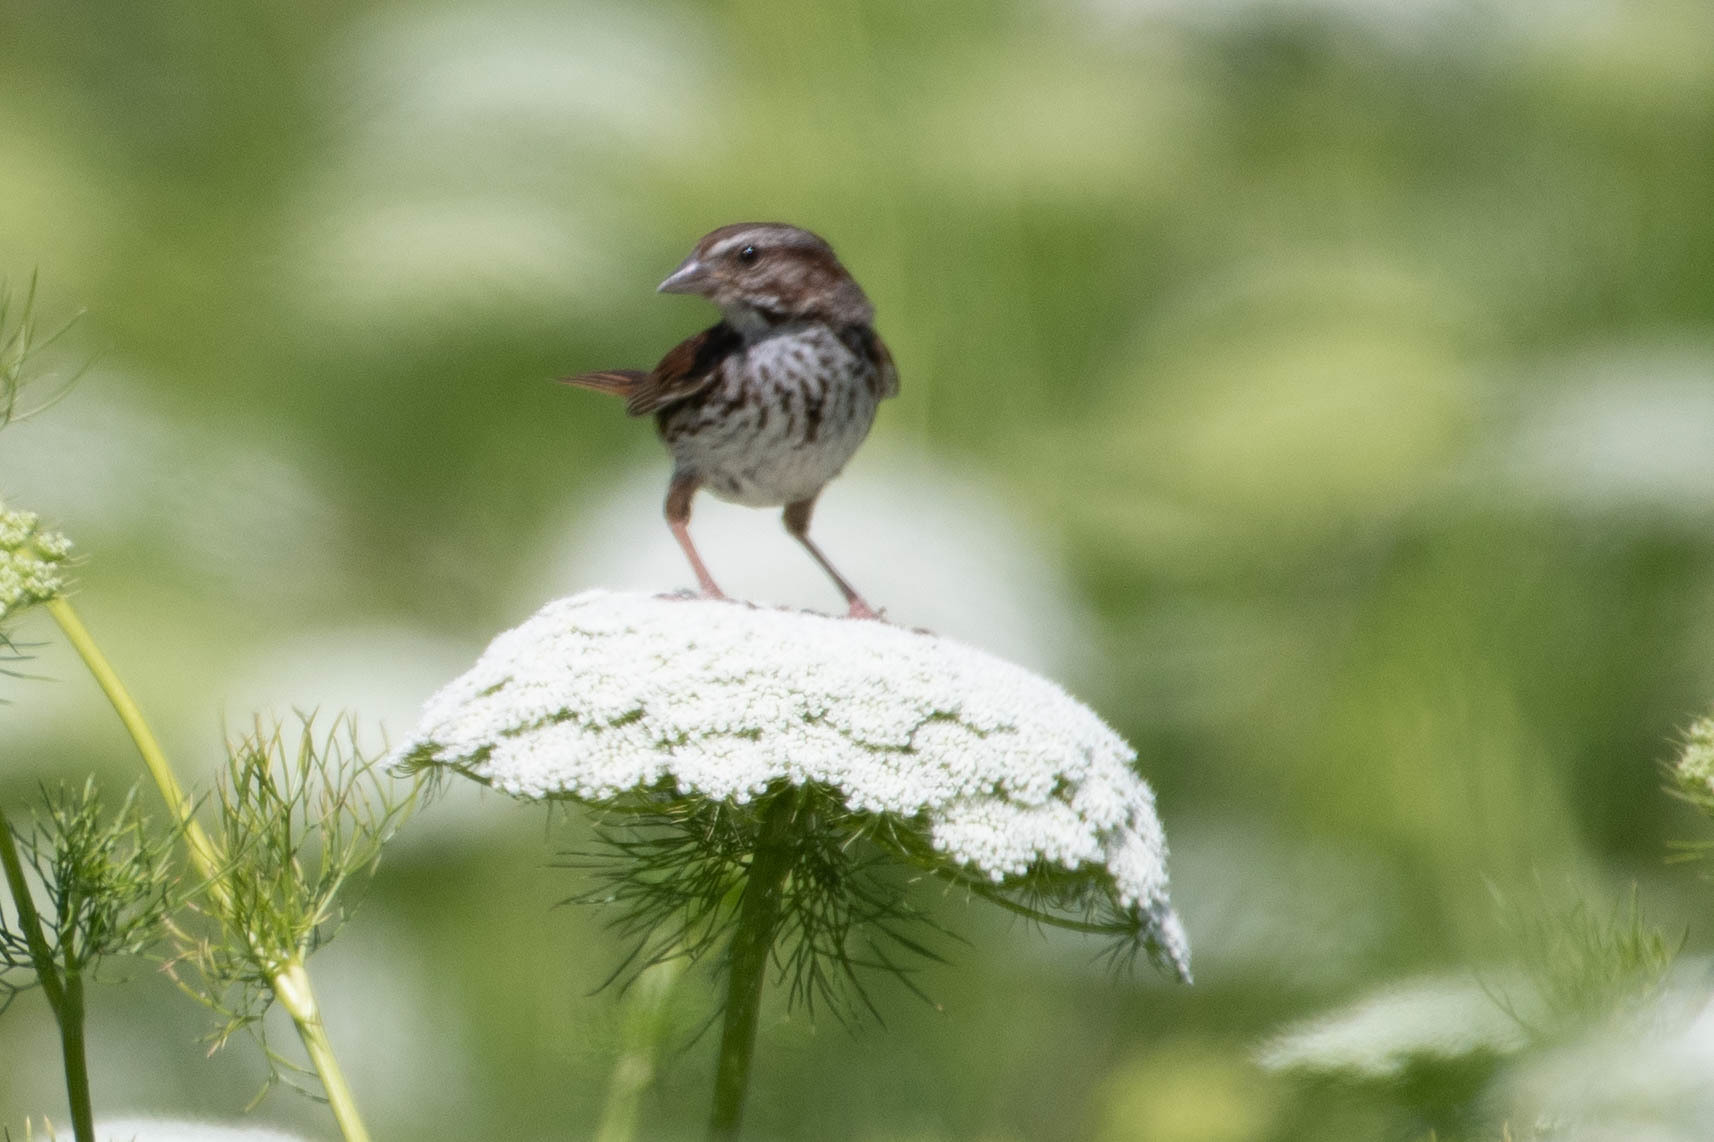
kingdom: Animalia
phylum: Chordata
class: Aves
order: Passeriformes
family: Passerellidae
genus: Melospiza
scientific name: Melospiza melodia
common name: Song sparrow
